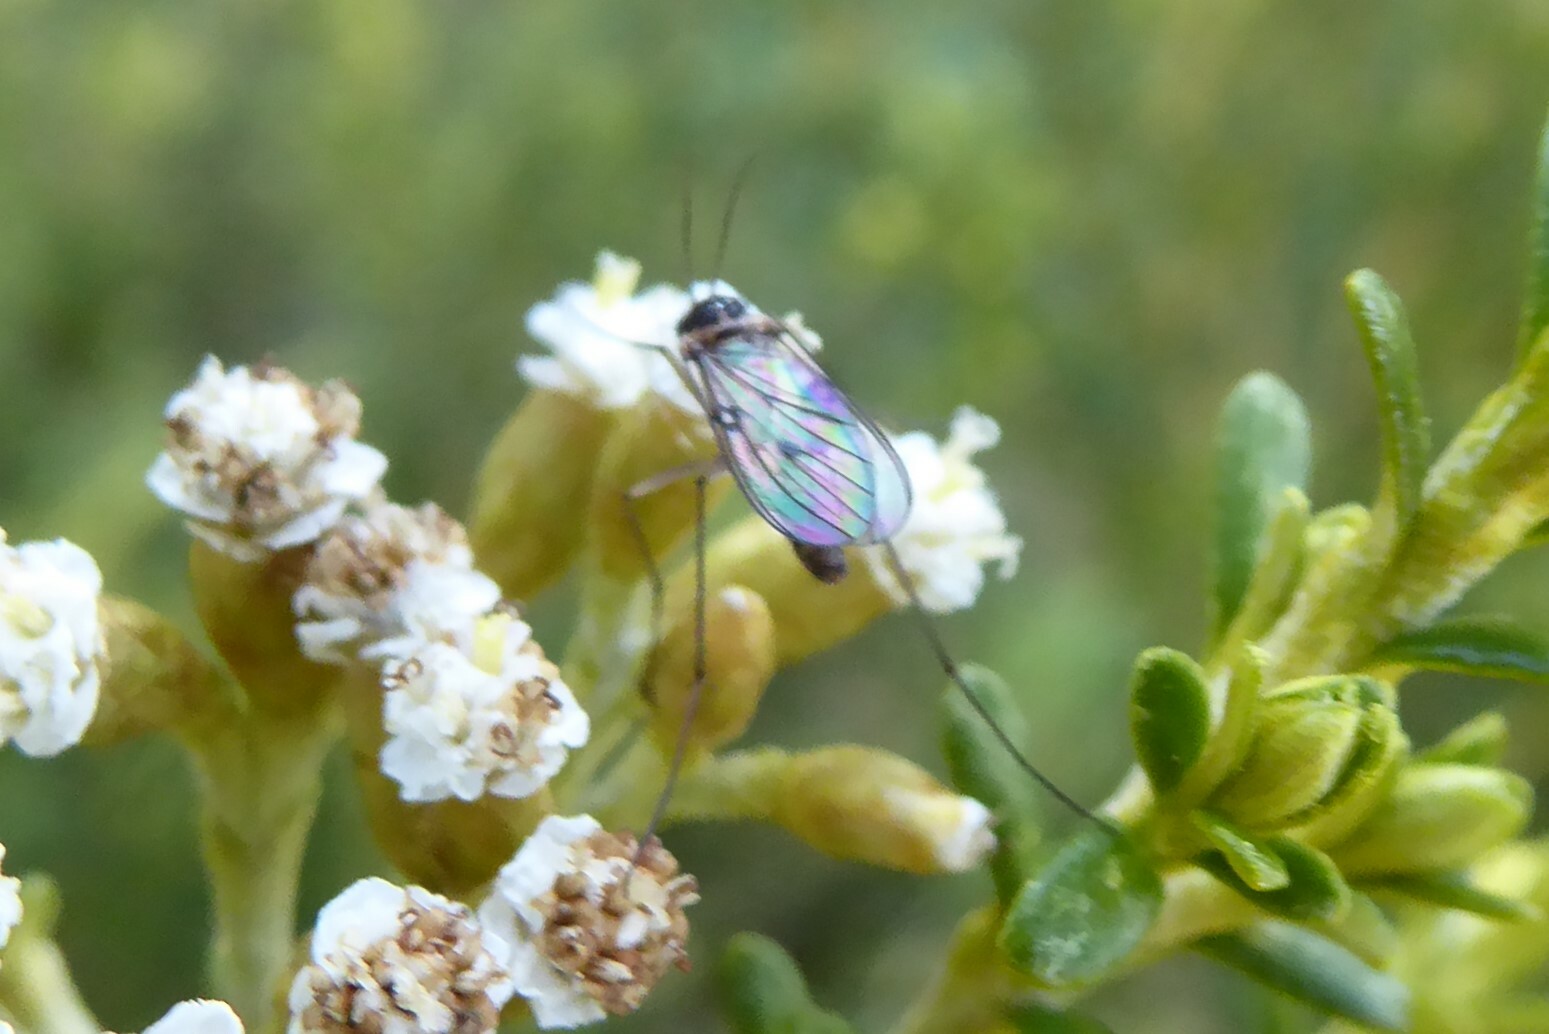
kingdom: Animalia
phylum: Arthropoda
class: Insecta
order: Diptera
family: Mycetophilidae
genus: Mycomya
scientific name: Mycomya flavilatera
